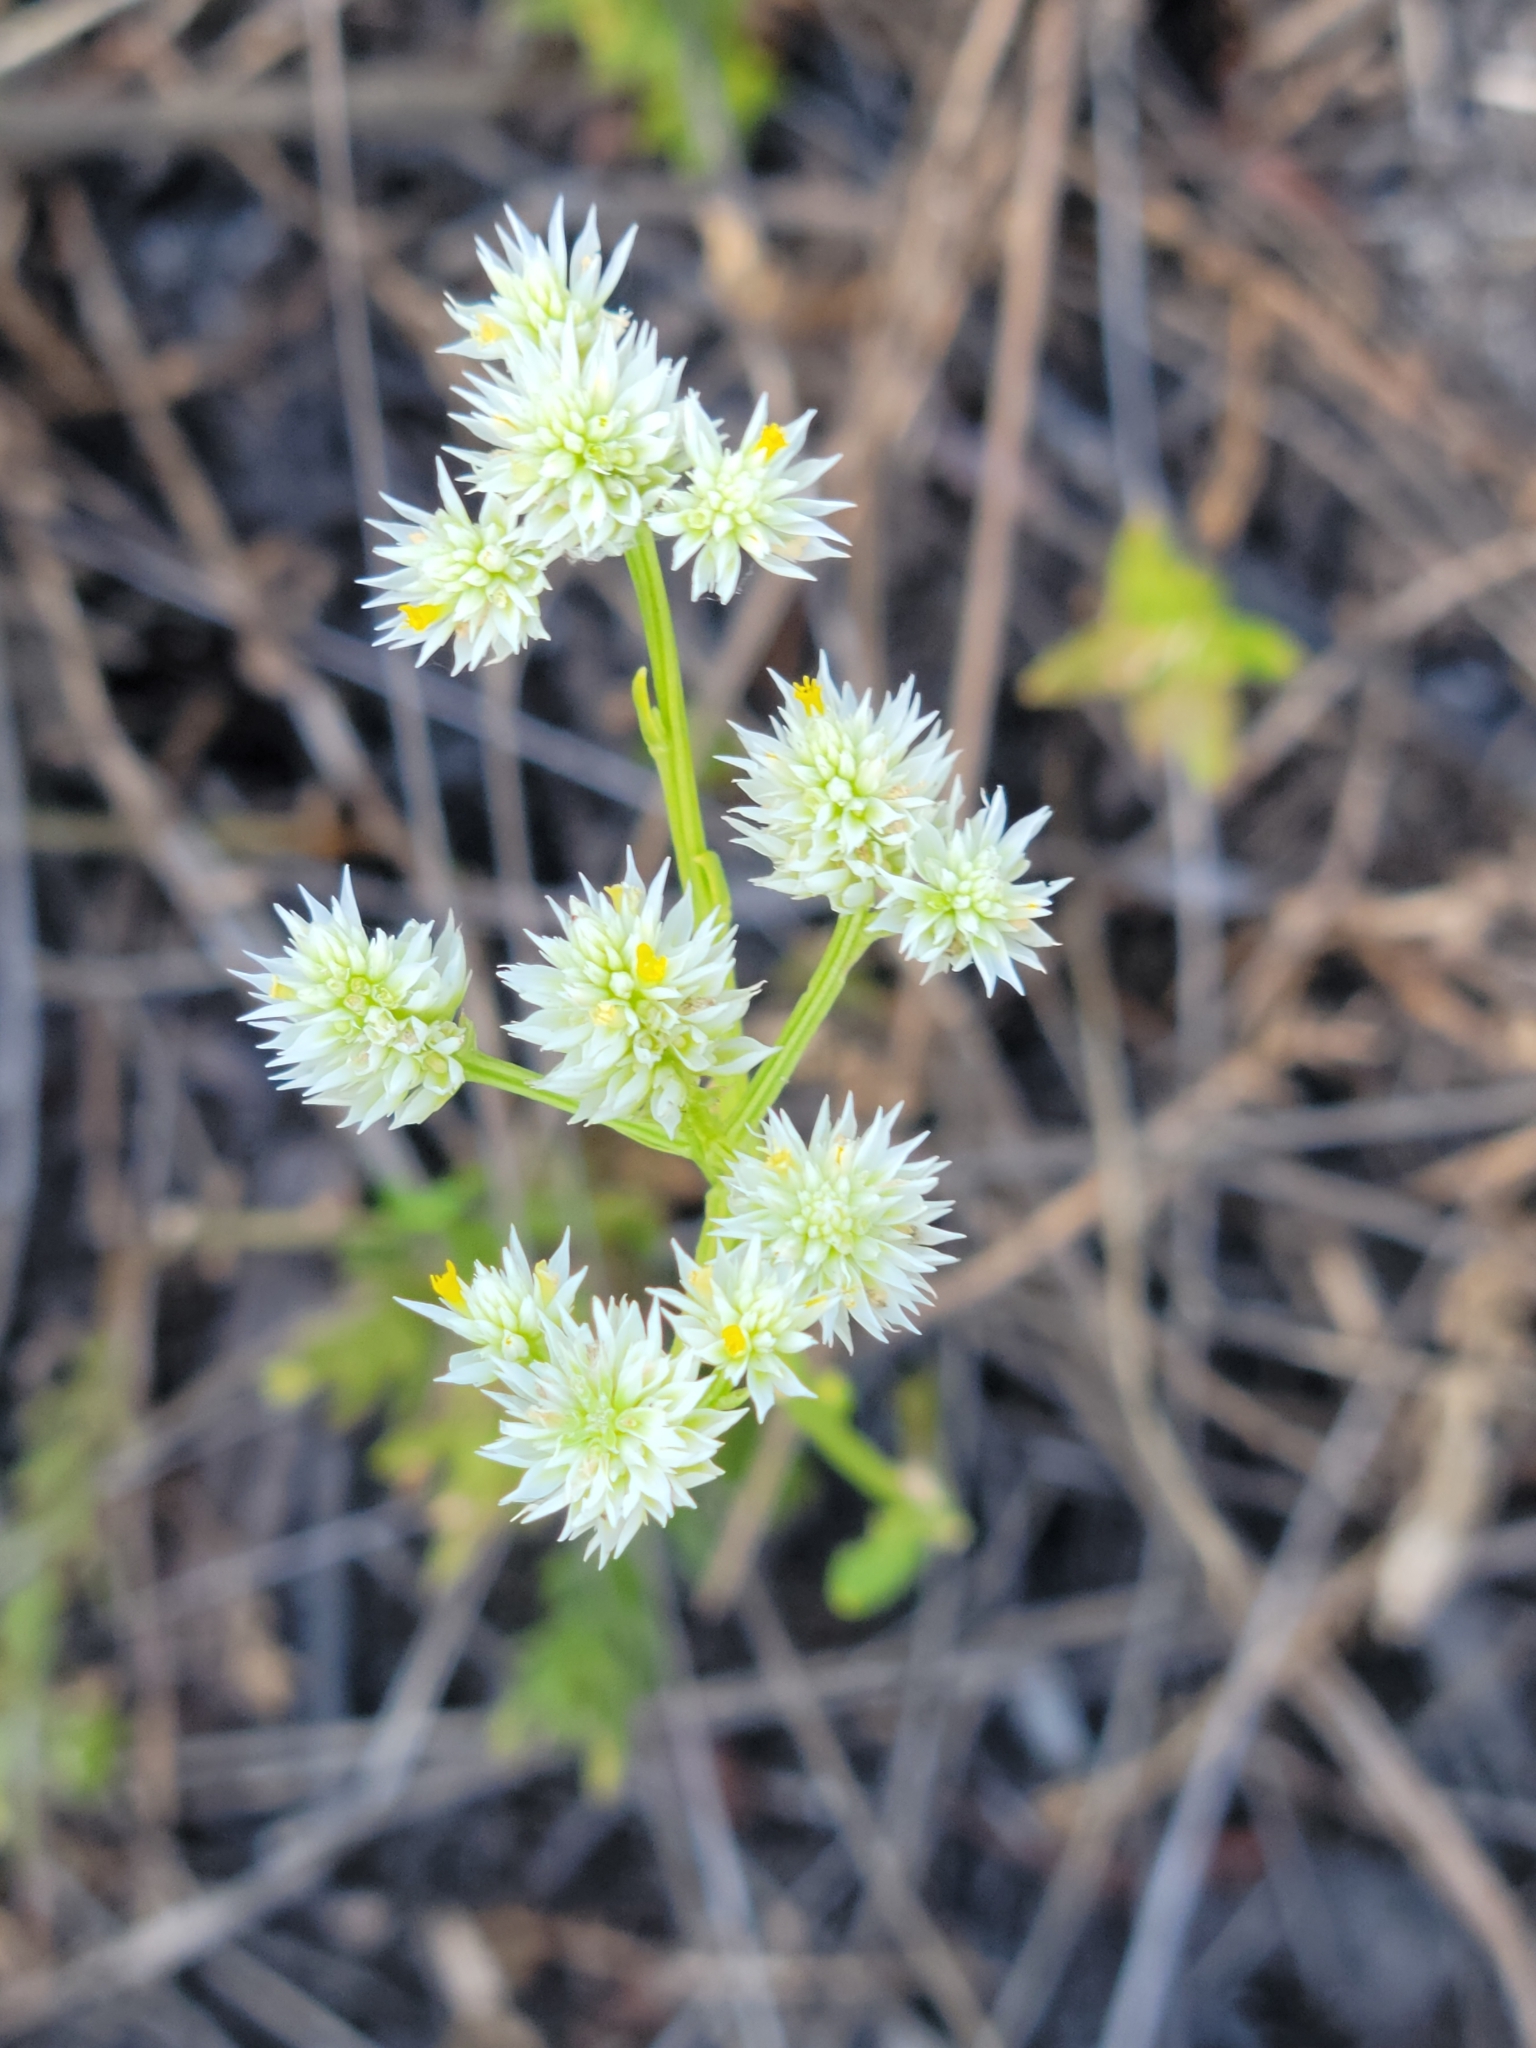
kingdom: Plantae
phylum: Tracheophyta
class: Magnoliopsida
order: Fabales
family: Polygalaceae
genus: Polygala
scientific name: Polygala baldwinii
